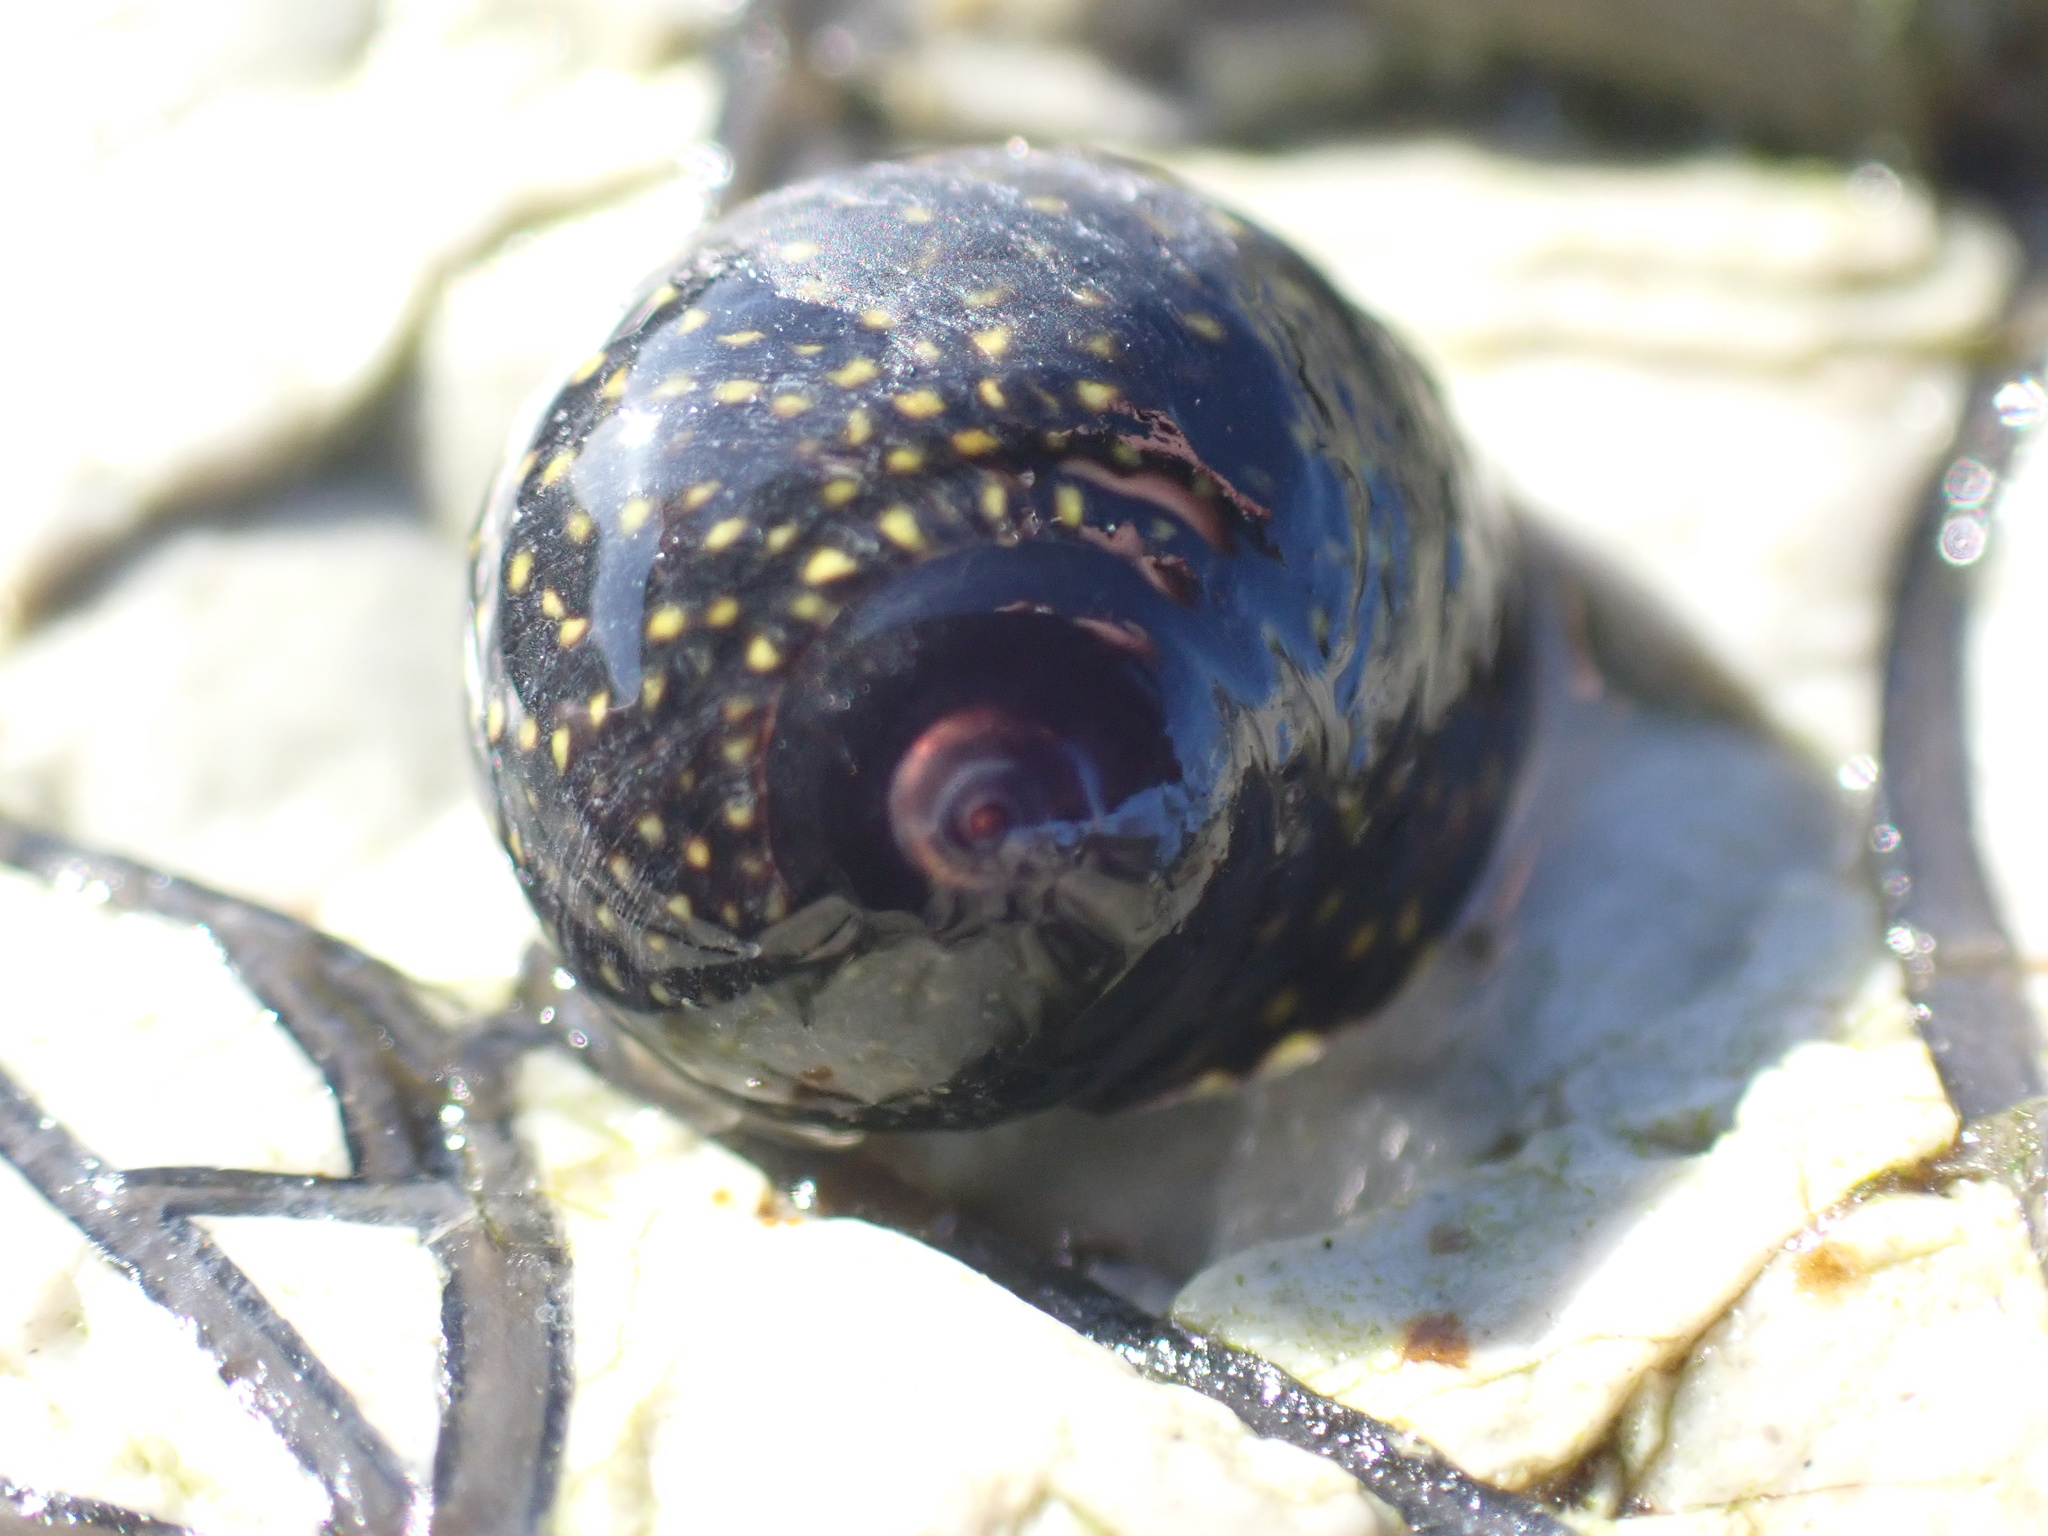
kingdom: Animalia
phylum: Mollusca
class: Gastropoda
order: Trochida
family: Trochidae
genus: Diloma
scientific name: Diloma aridum
